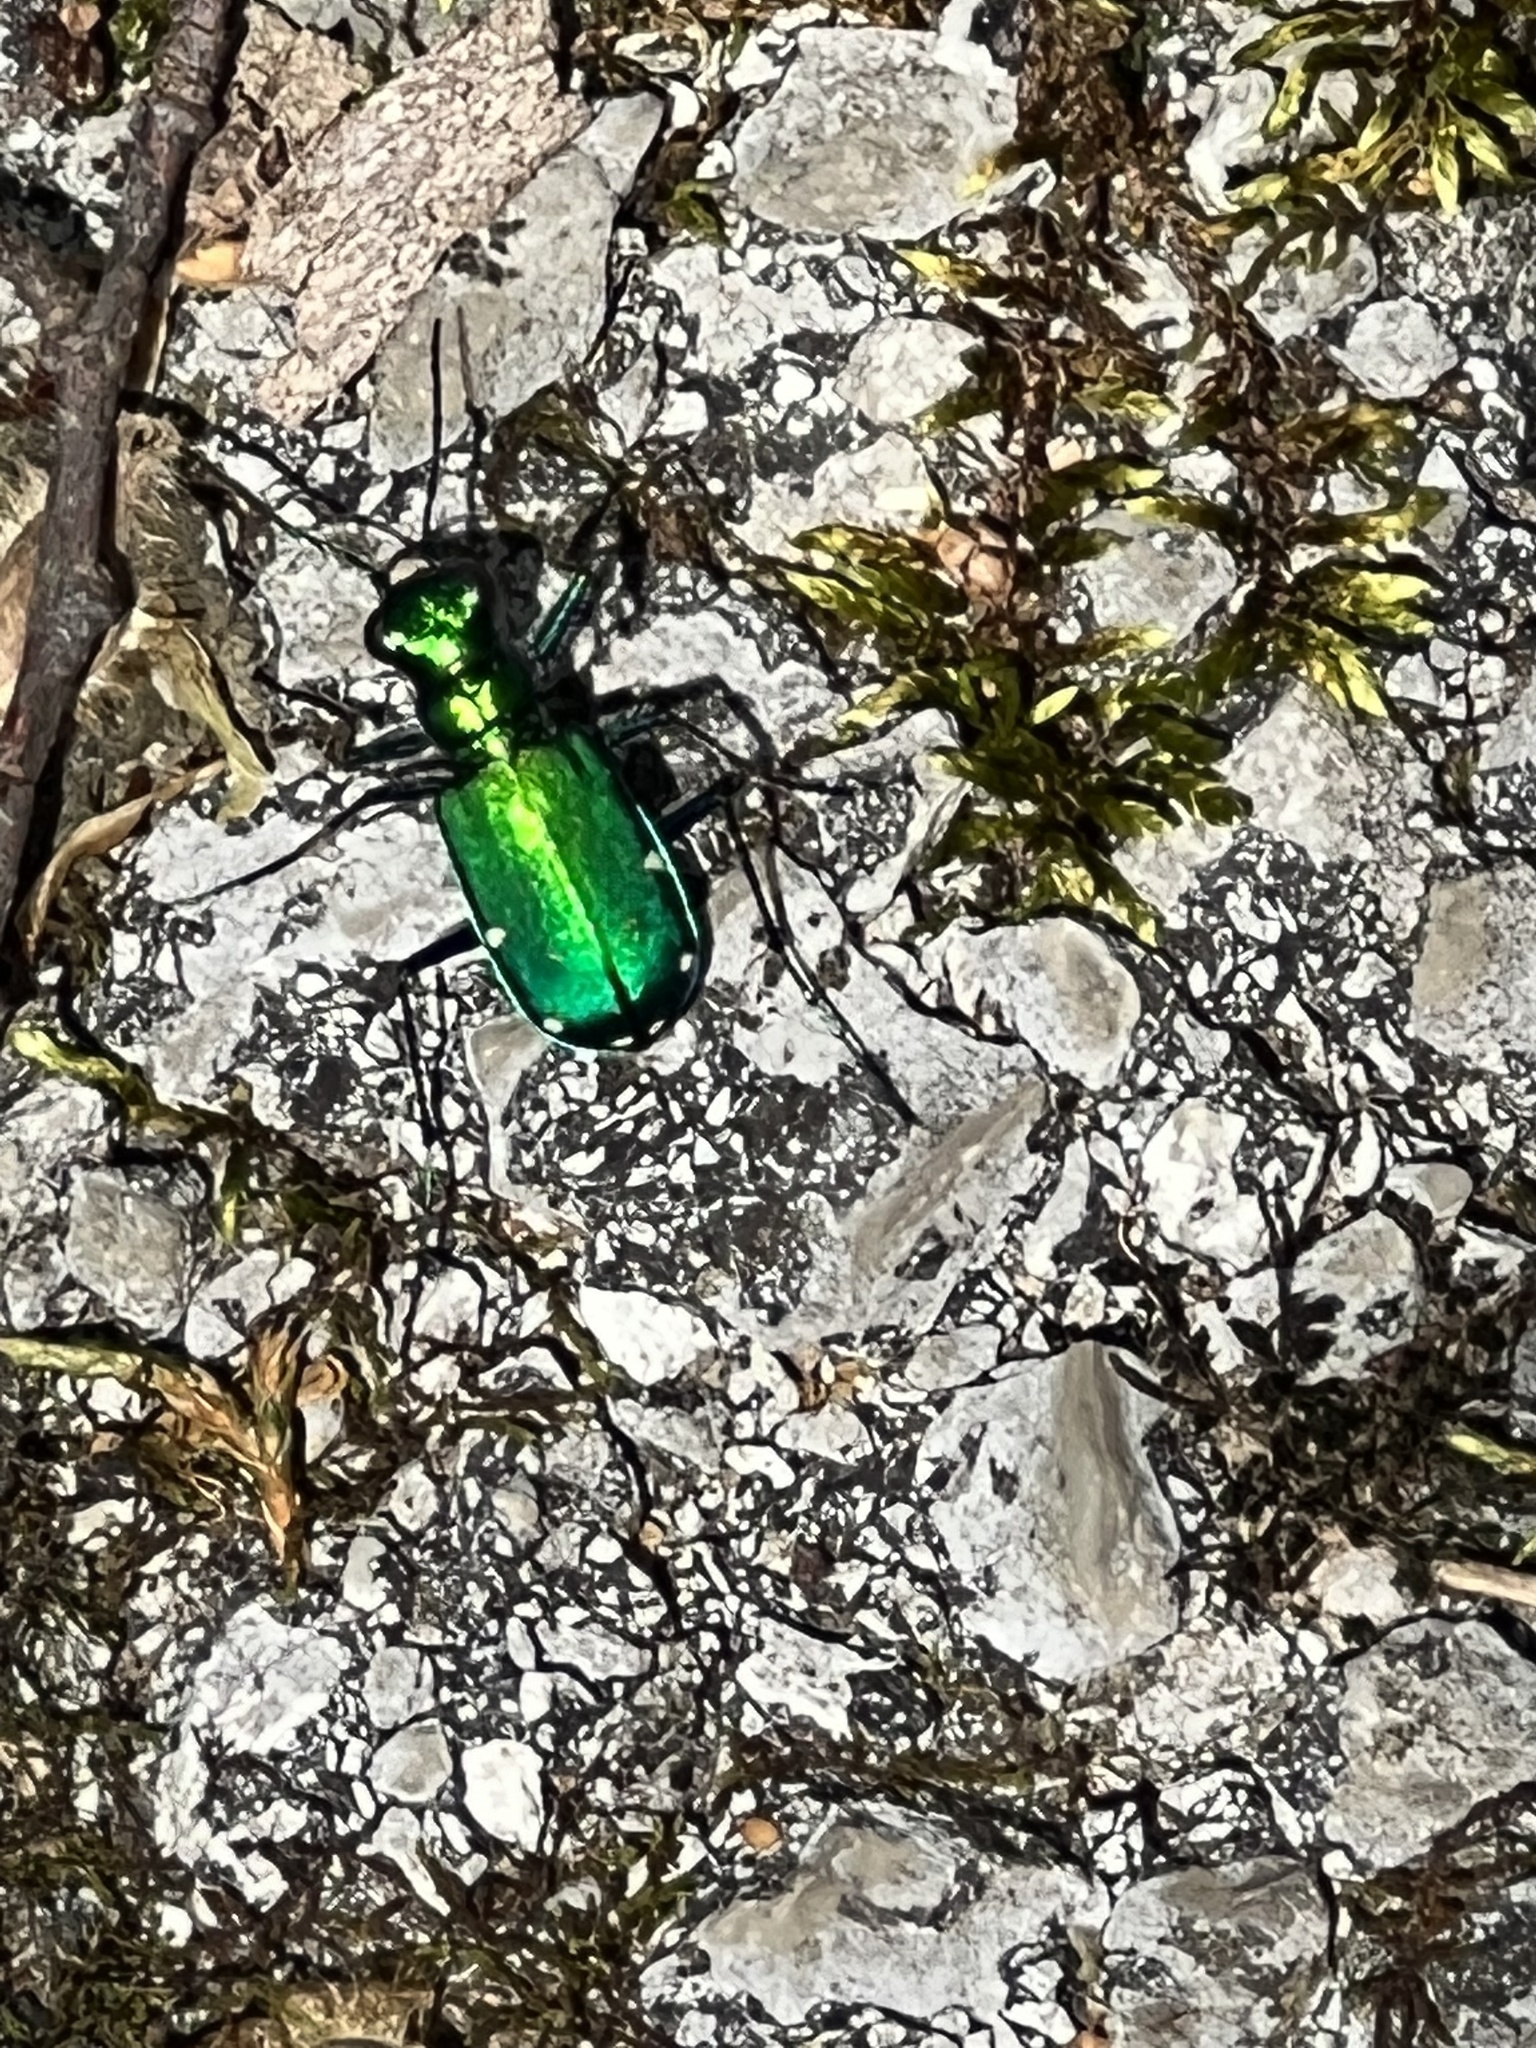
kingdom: Animalia
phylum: Arthropoda
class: Insecta
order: Coleoptera
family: Carabidae
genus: Cicindela
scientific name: Cicindela sexguttata
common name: Six-spotted tiger beetle
